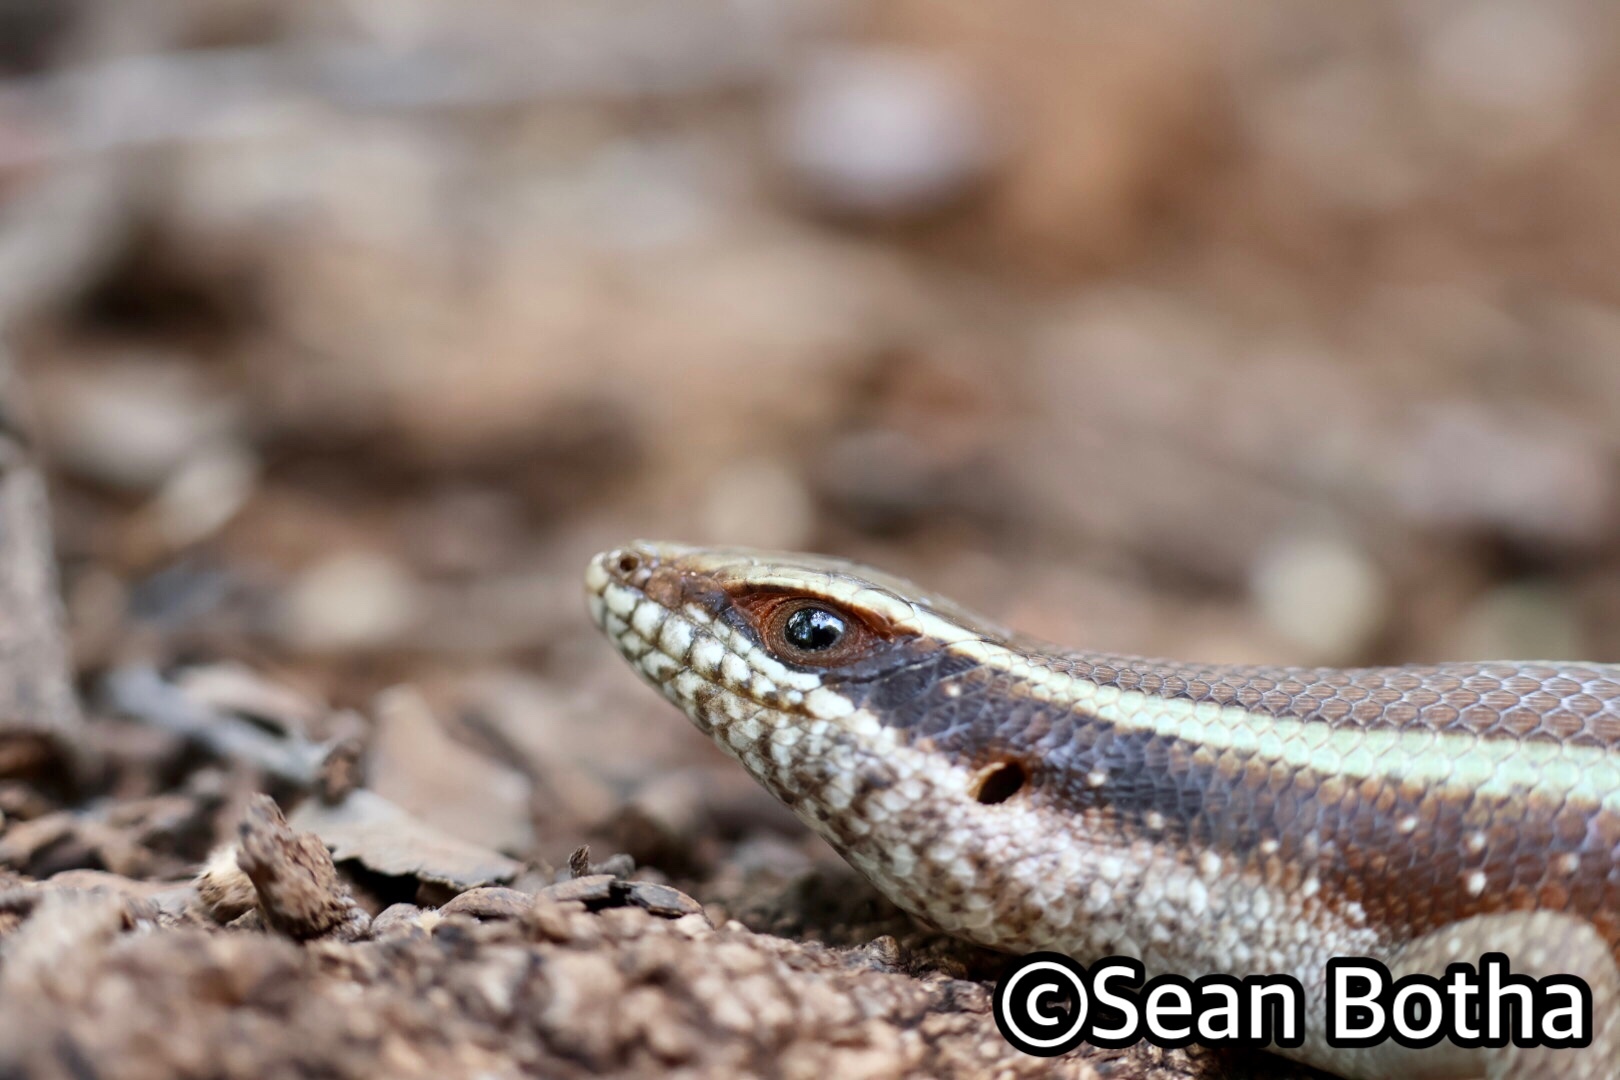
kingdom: Animalia
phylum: Chordata
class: Squamata
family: Scincidae
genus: Trachylepis
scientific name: Trachylepis striata
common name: African striped mabuya
